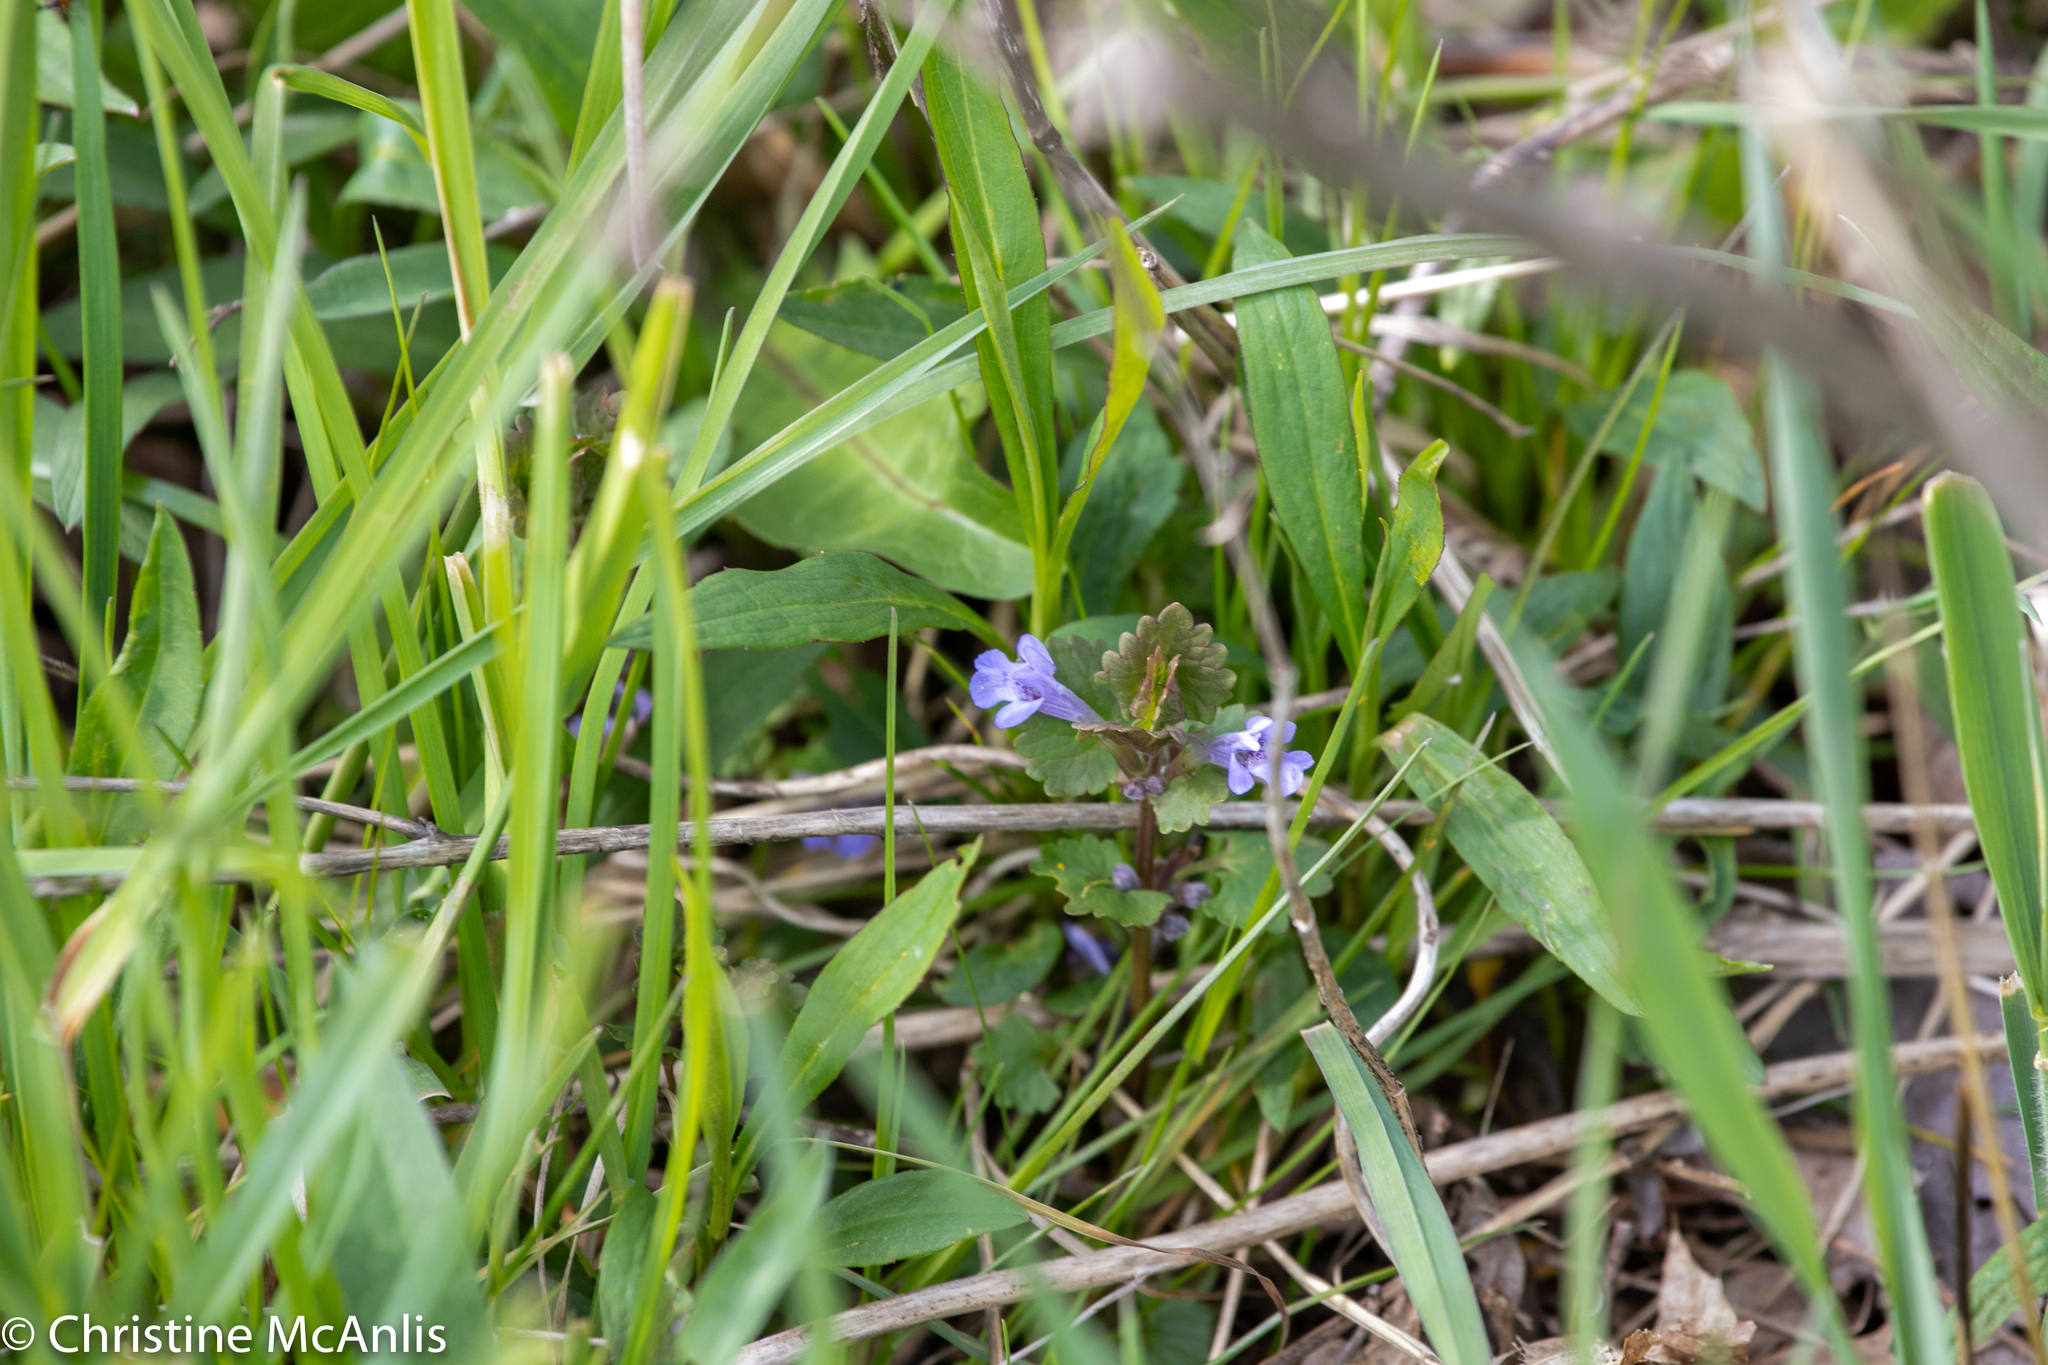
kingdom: Plantae
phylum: Tracheophyta
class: Magnoliopsida
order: Lamiales
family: Lamiaceae
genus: Glechoma
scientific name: Glechoma hederacea
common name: Ground ivy
